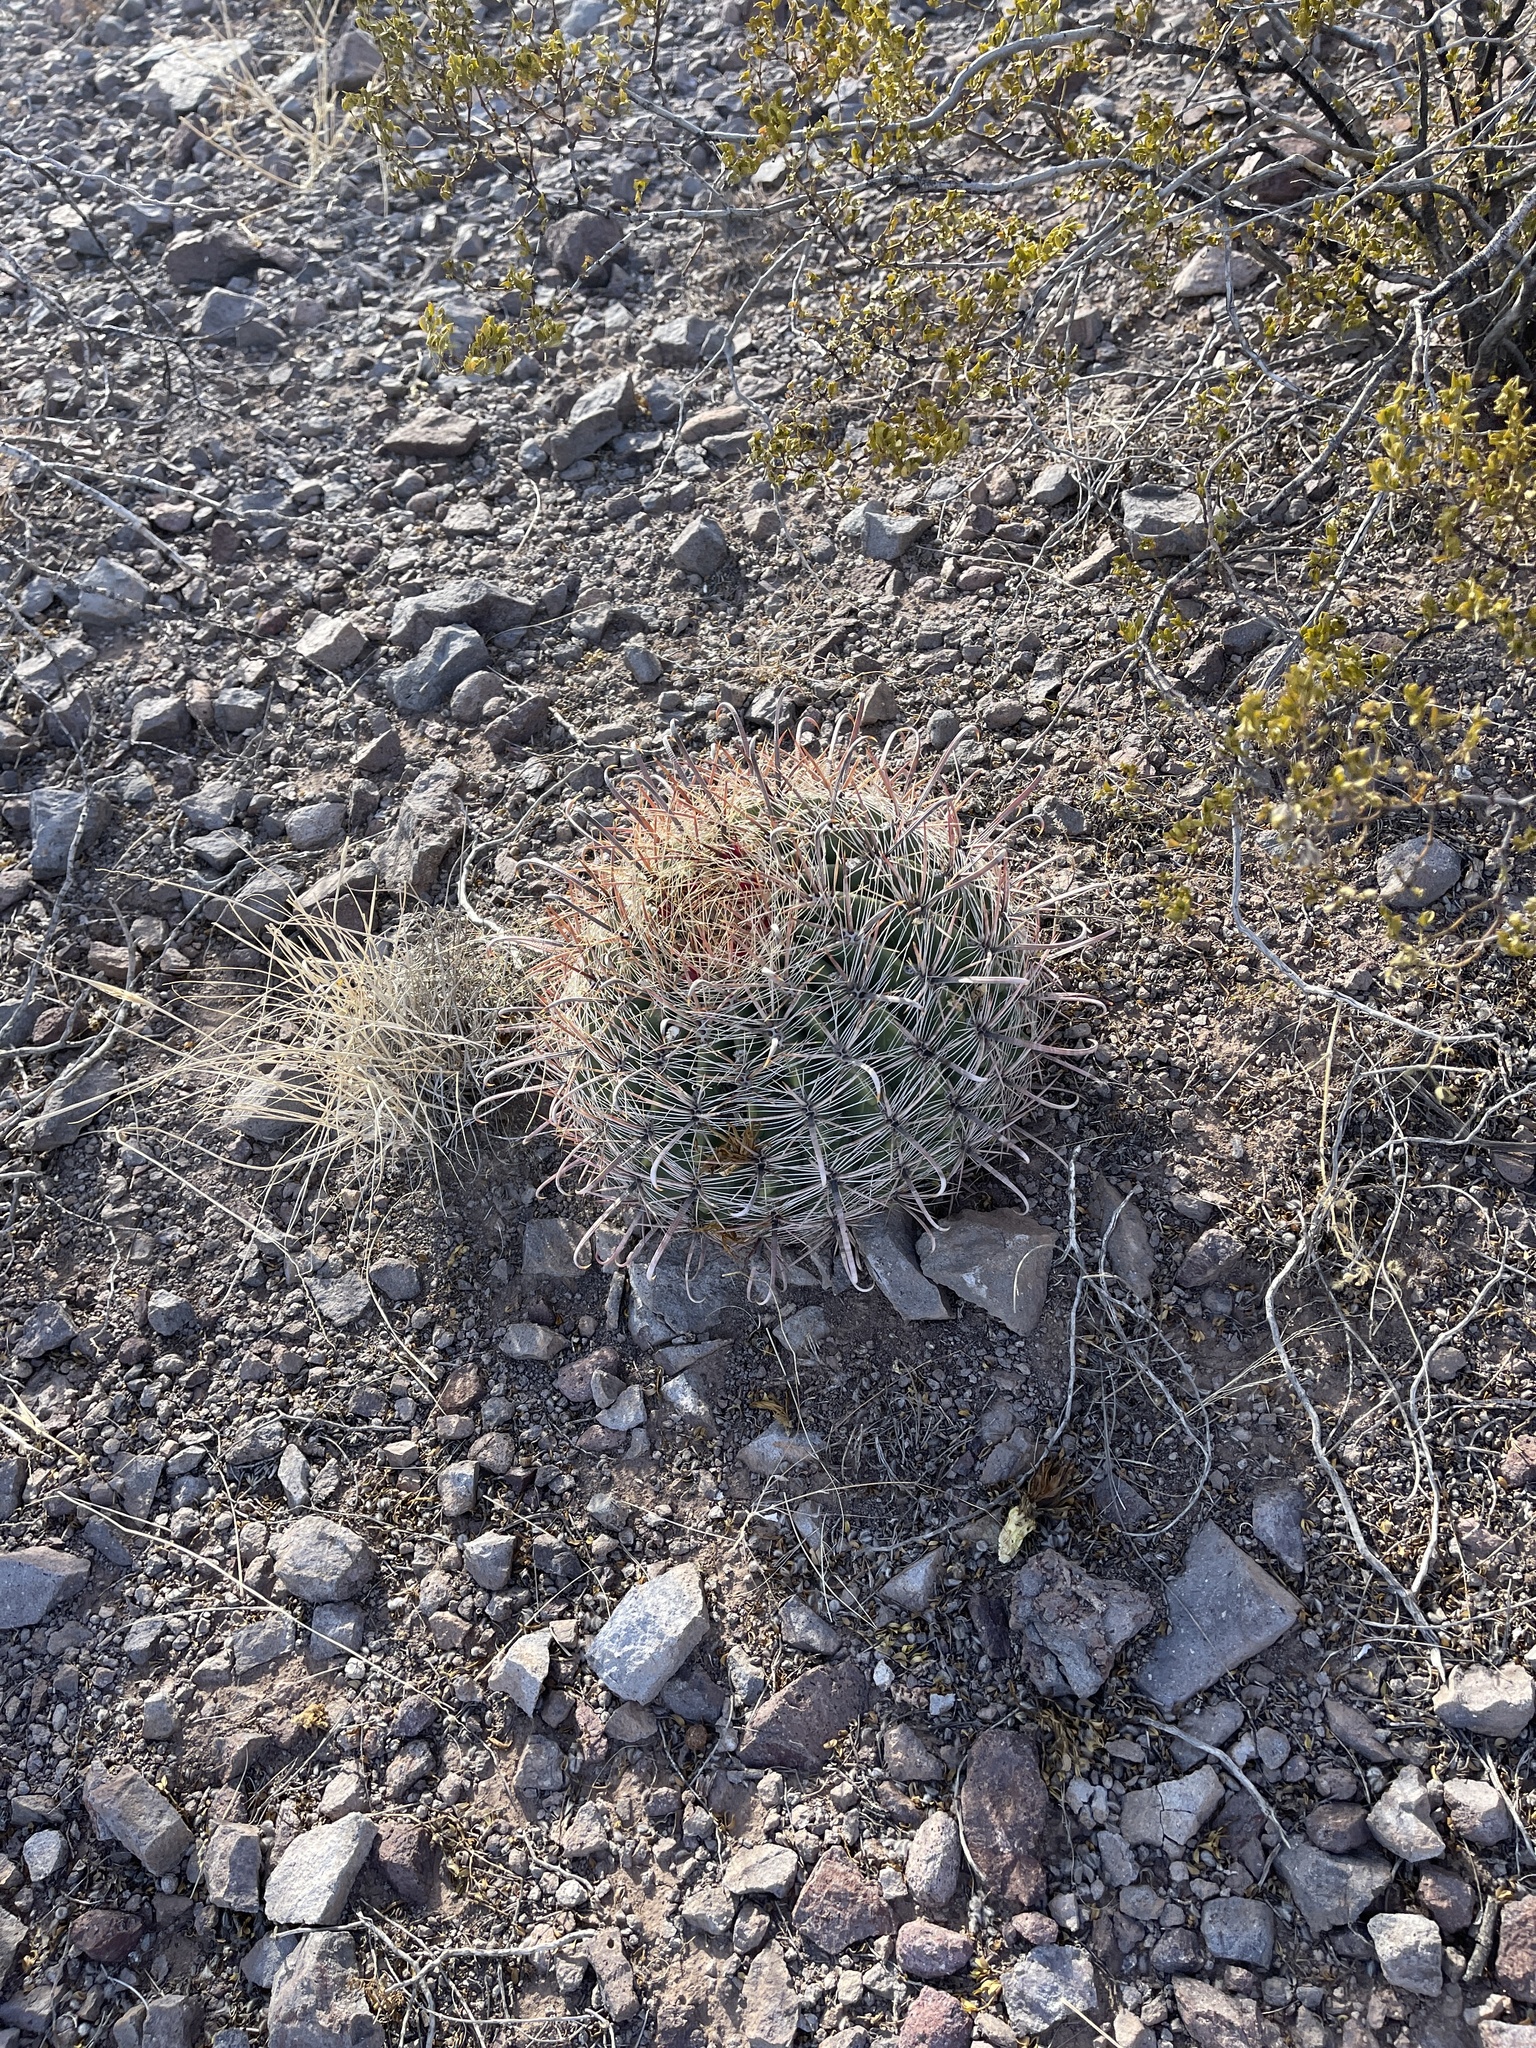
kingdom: Plantae
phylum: Tracheophyta
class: Magnoliopsida
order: Caryophyllales
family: Cactaceae
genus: Ferocactus
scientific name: Ferocactus wislizeni
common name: Candy barrel cactus
